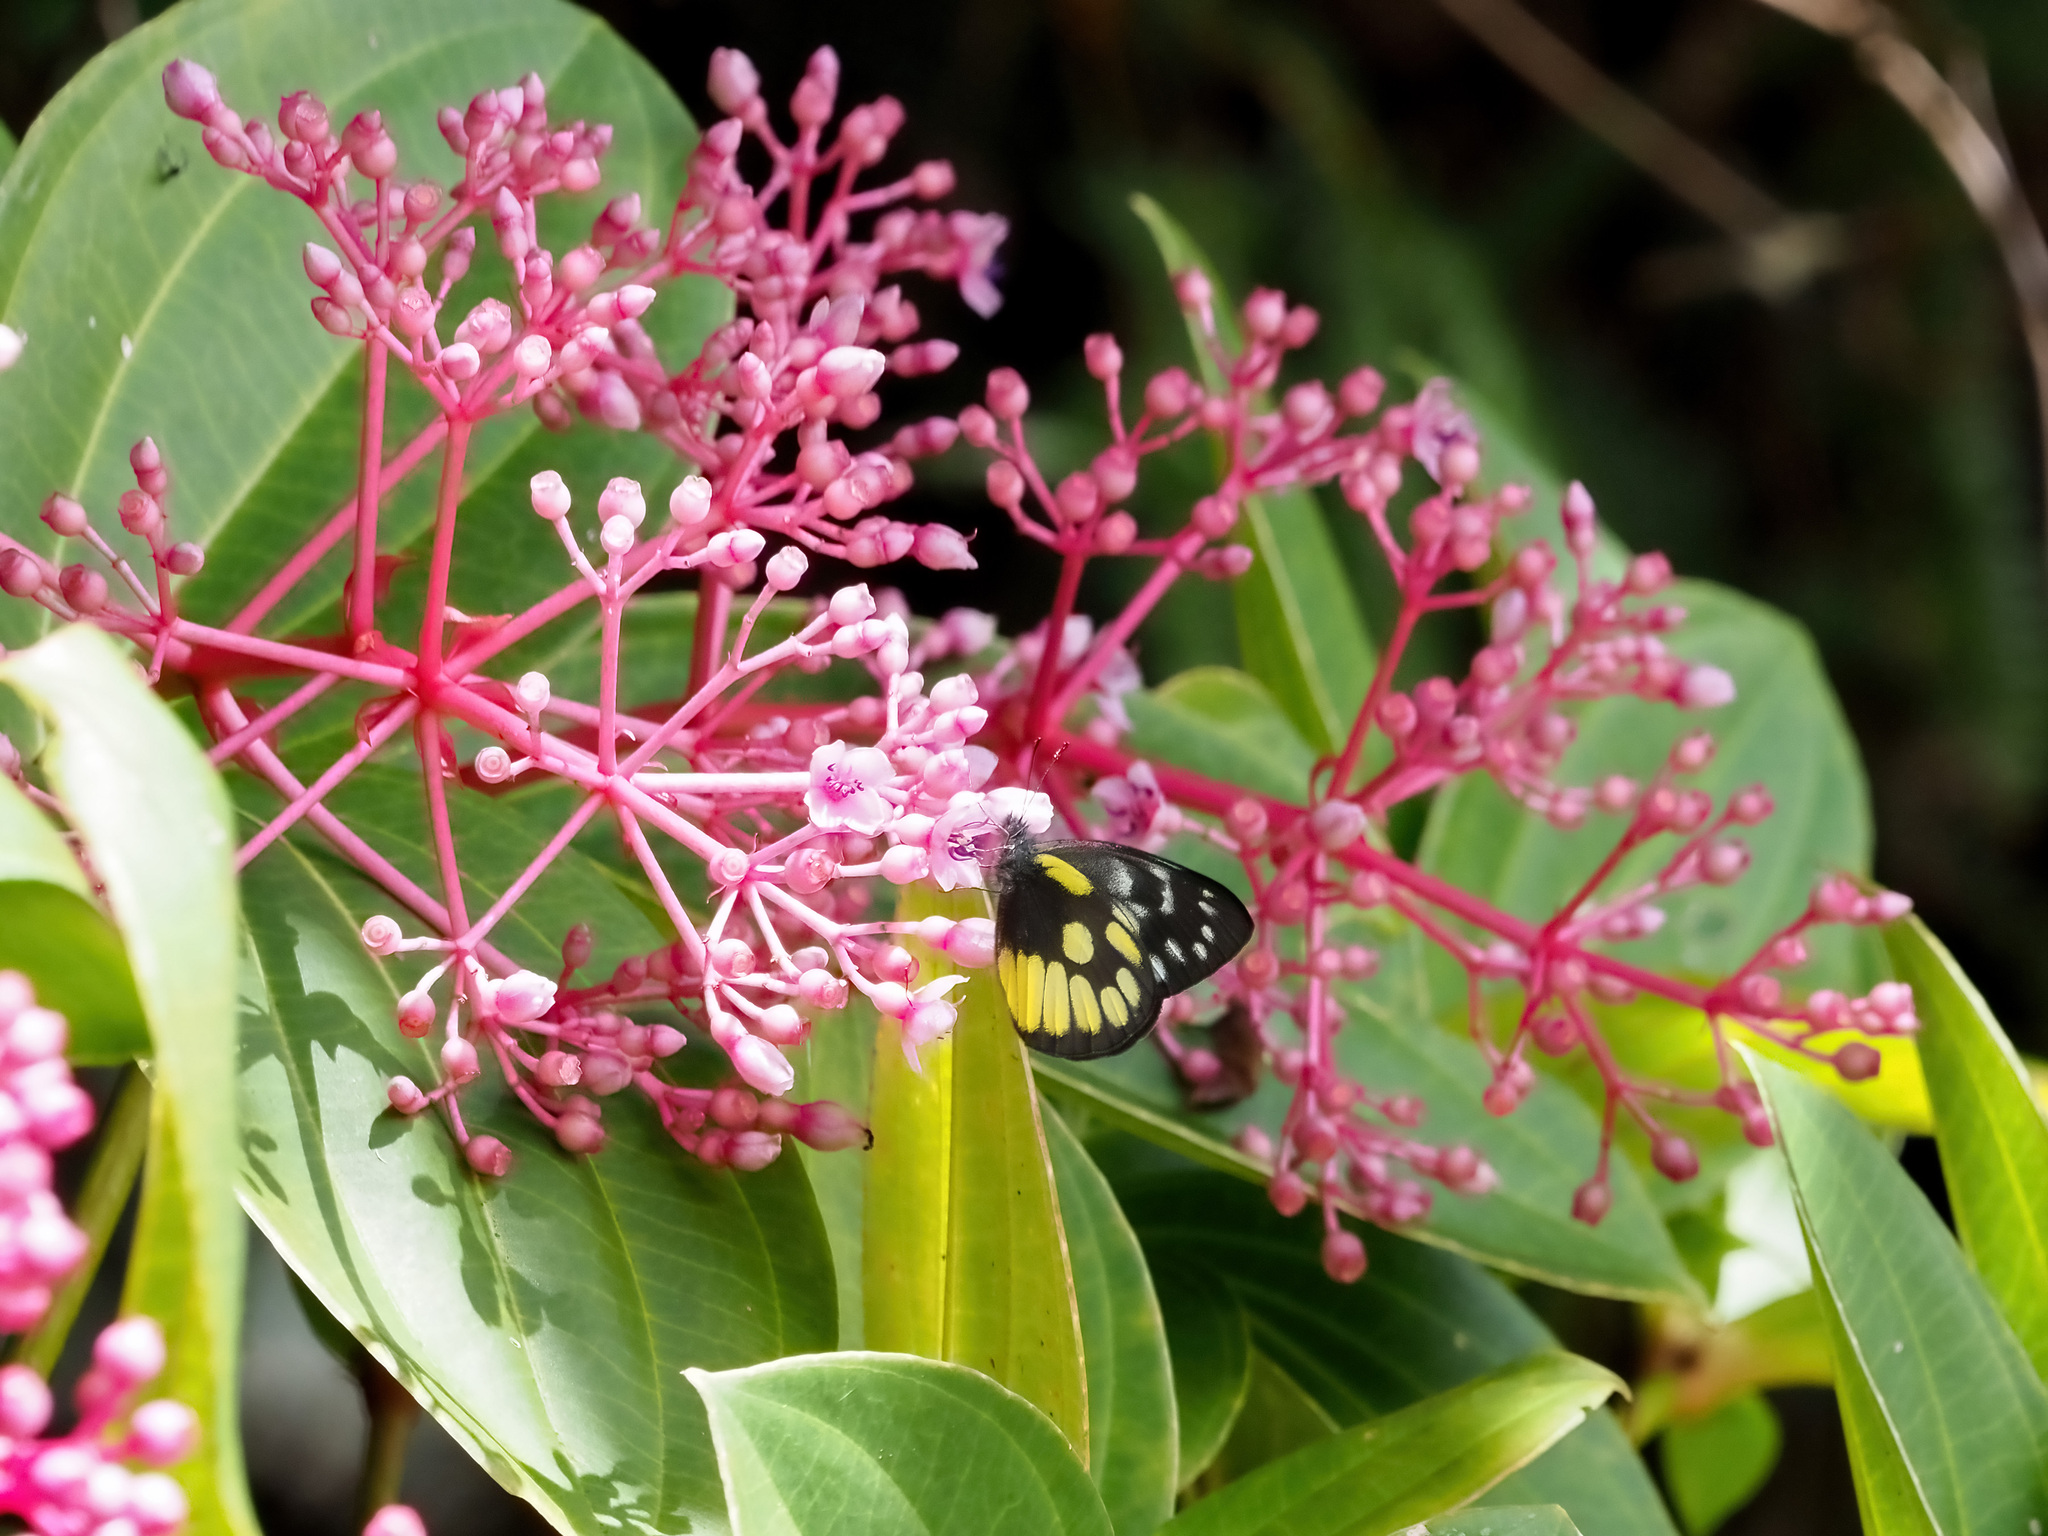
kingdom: Animalia
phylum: Arthropoda
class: Insecta
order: Lepidoptera
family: Pieridae
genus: Delias
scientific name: Delias cinerascens
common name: Kinabalu jezebel
